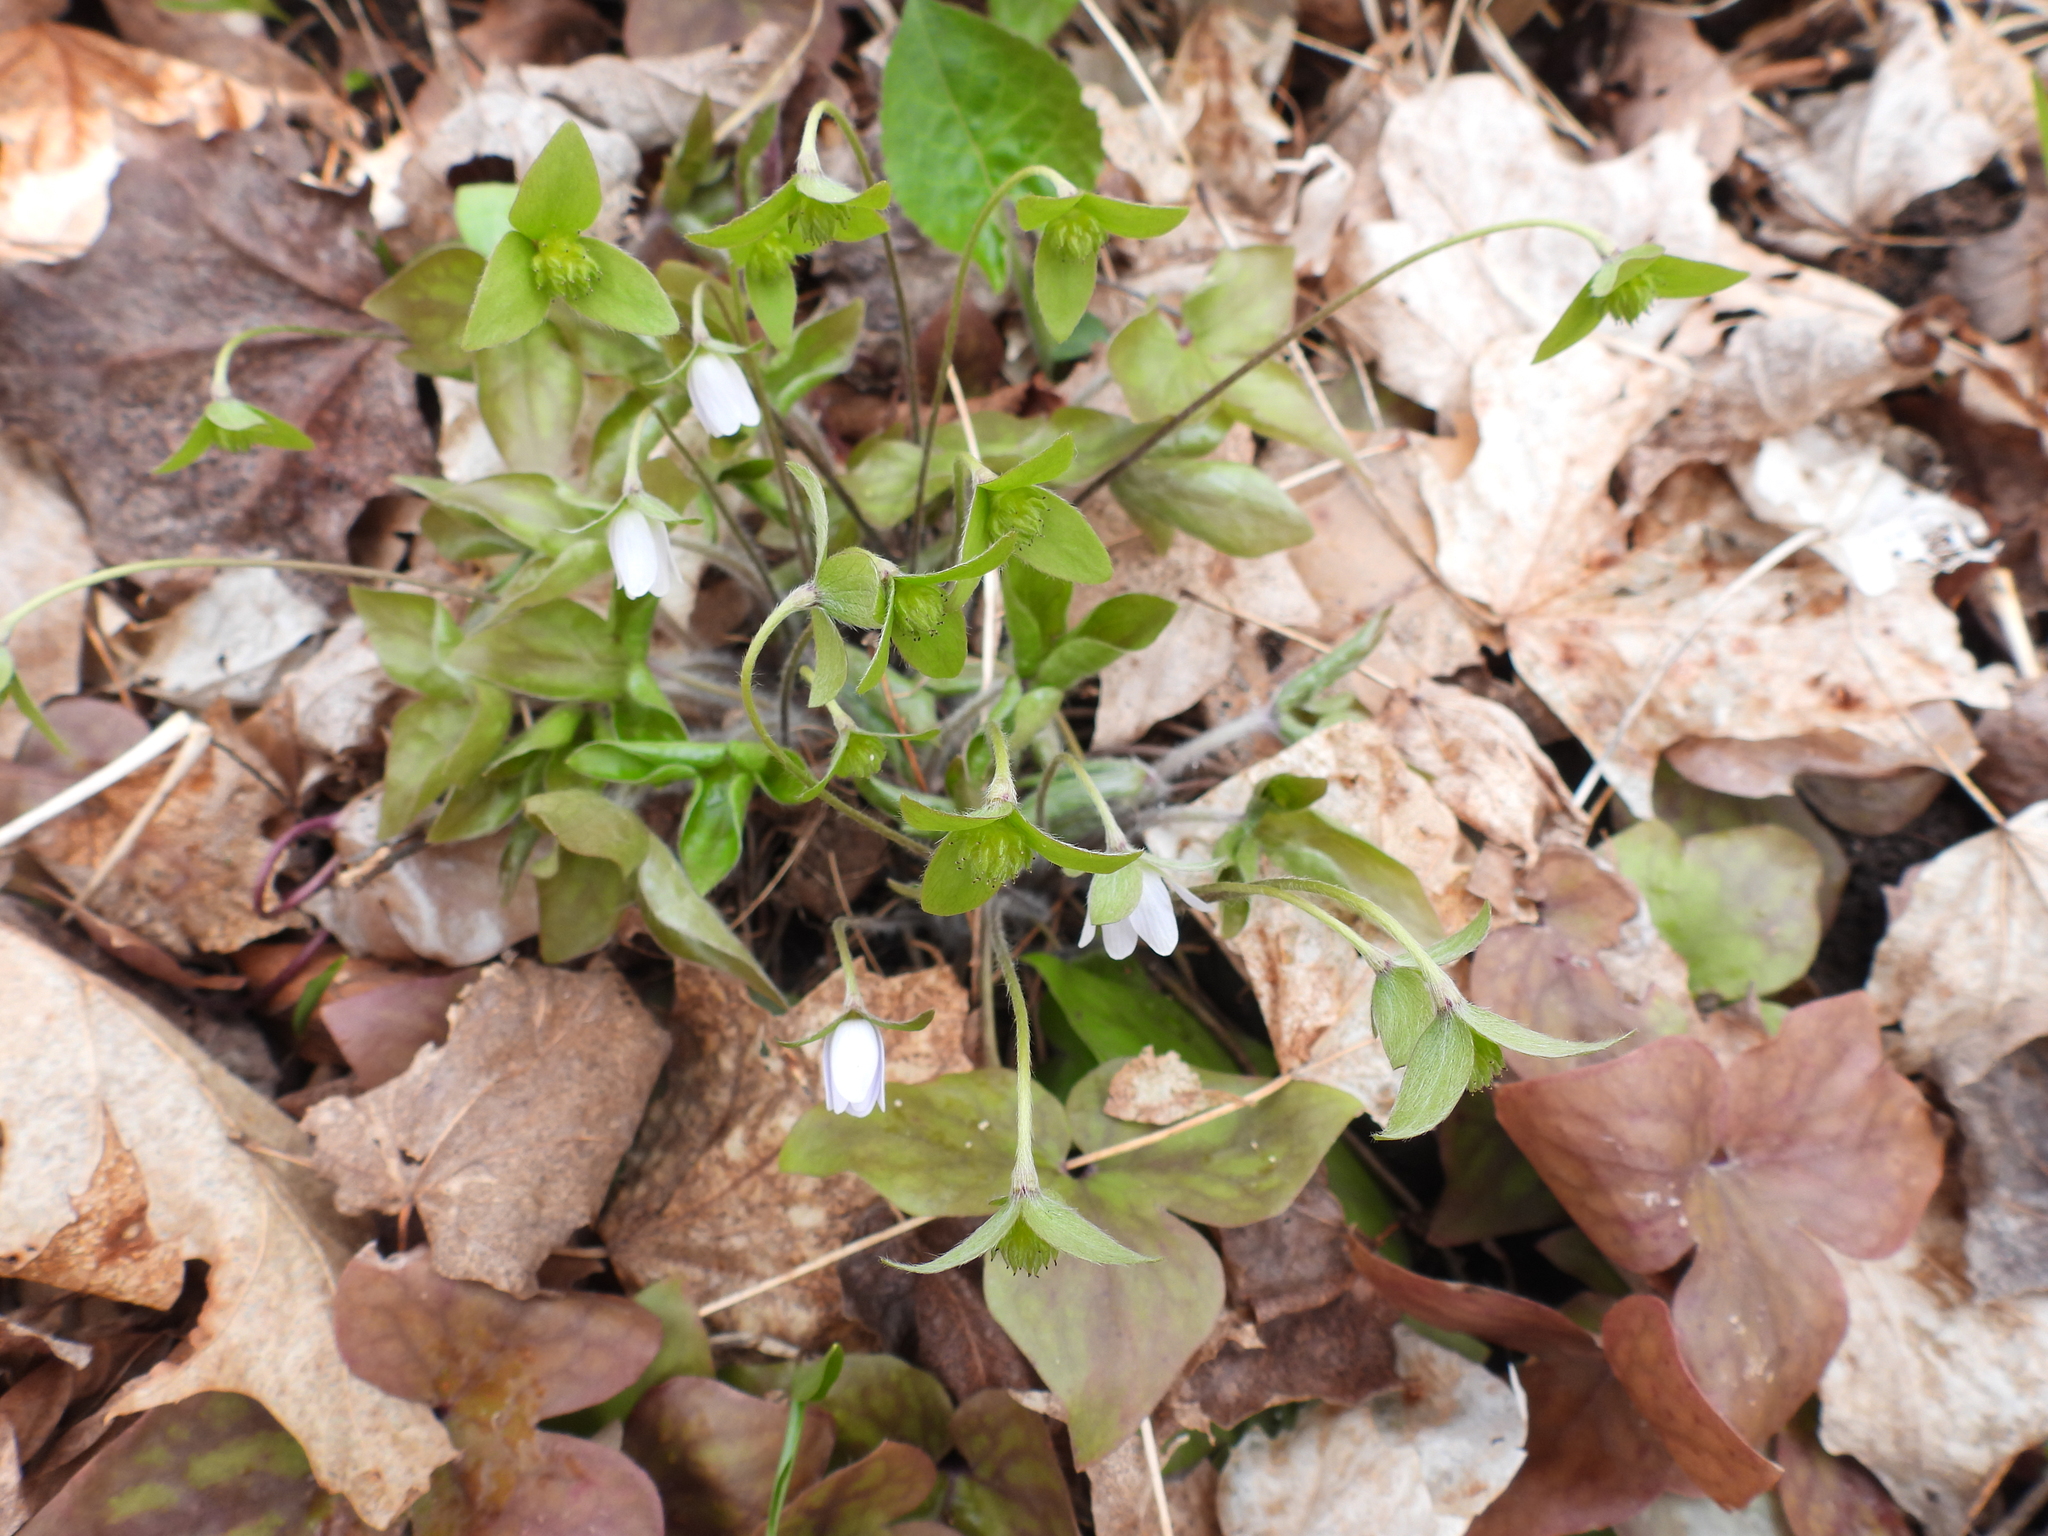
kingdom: Plantae
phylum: Tracheophyta
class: Magnoliopsida
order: Ranunculales
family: Ranunculaceae
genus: Hepatica
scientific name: Hepatica acutiloba
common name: Sharp-lobed hepatica
